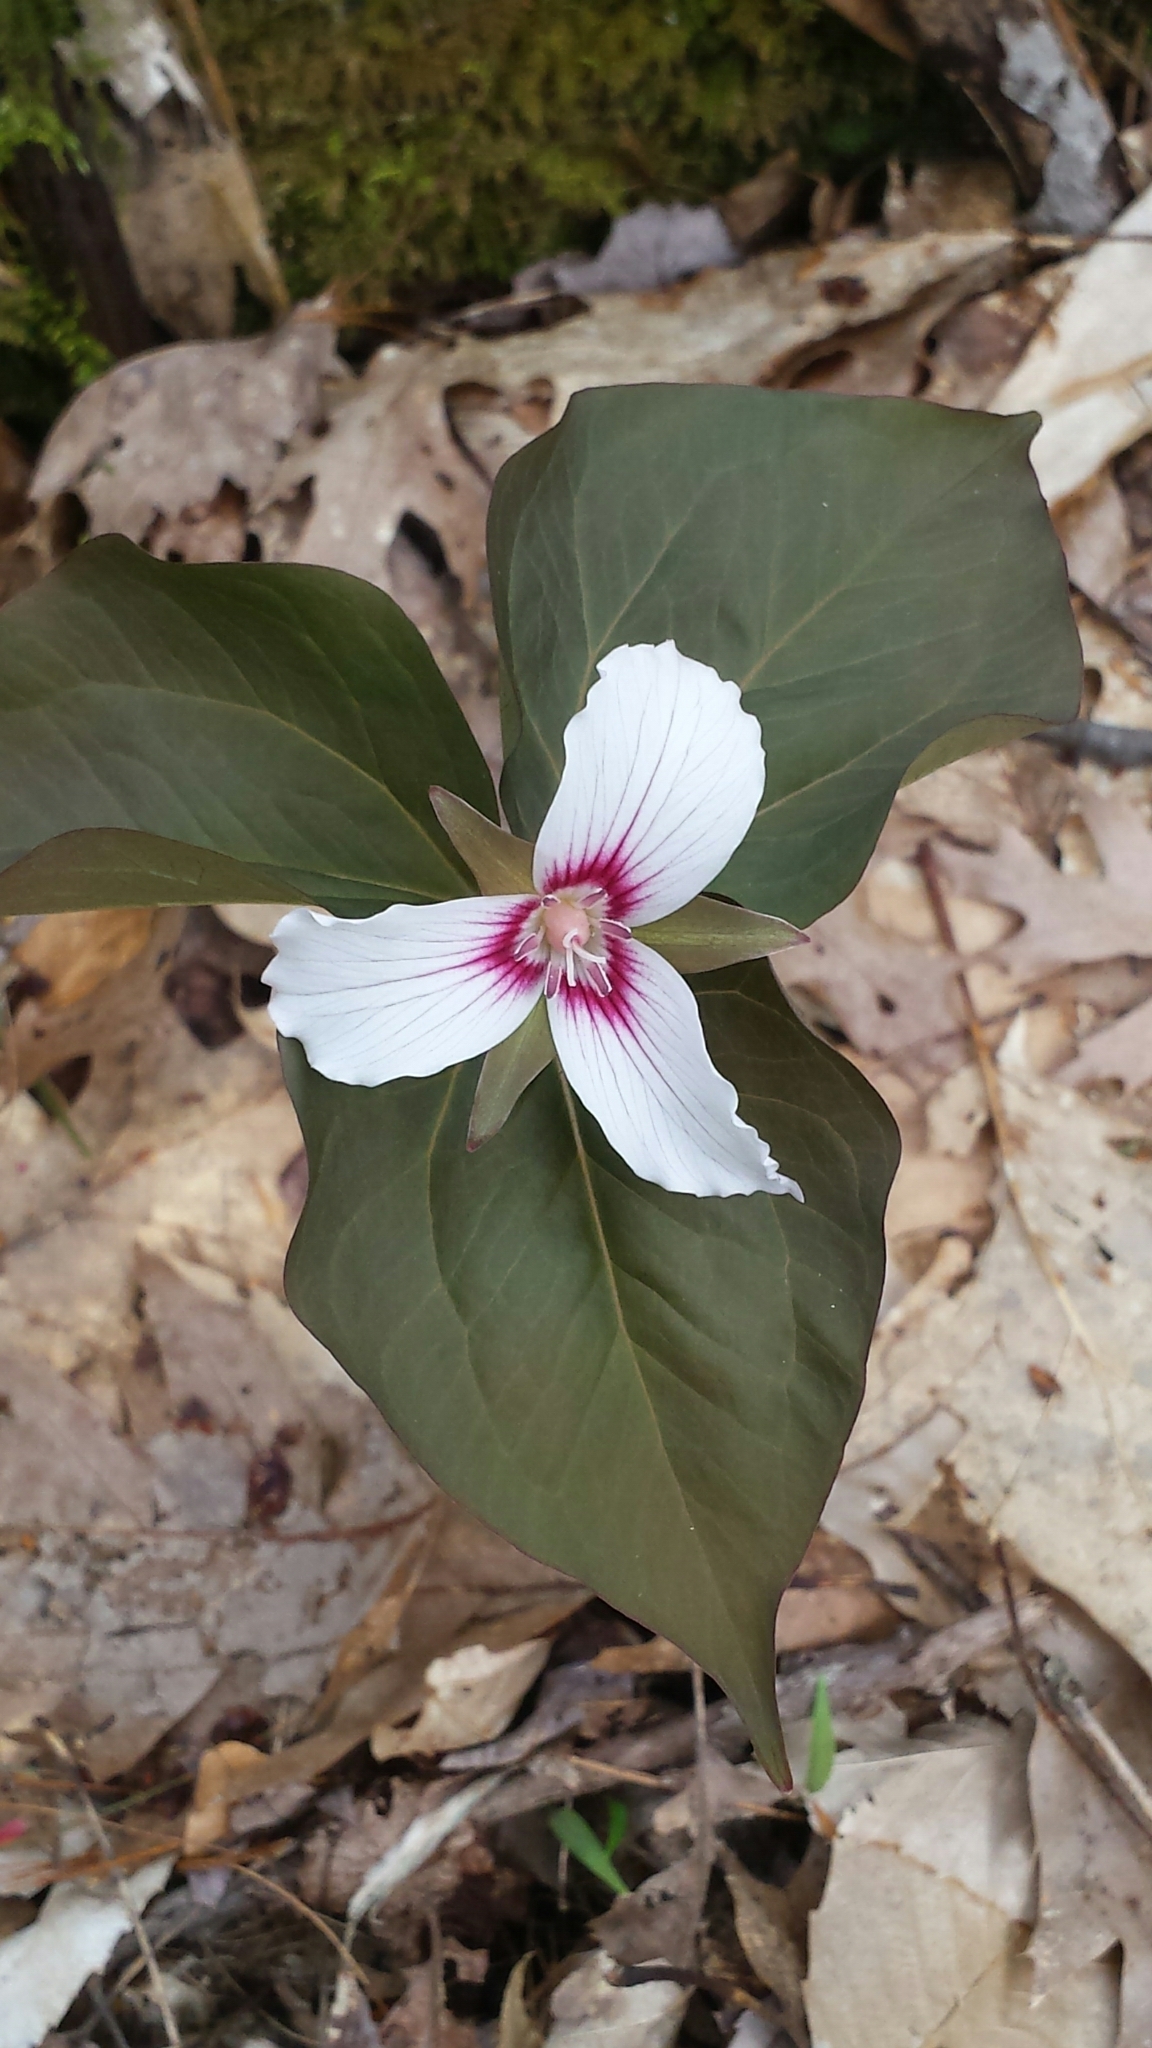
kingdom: Plantae
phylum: Tracheophyta
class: Liliopsida
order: Liliales
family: Melanthiaceae
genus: Trillium
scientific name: Trillium undulatum
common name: Paint trillium
